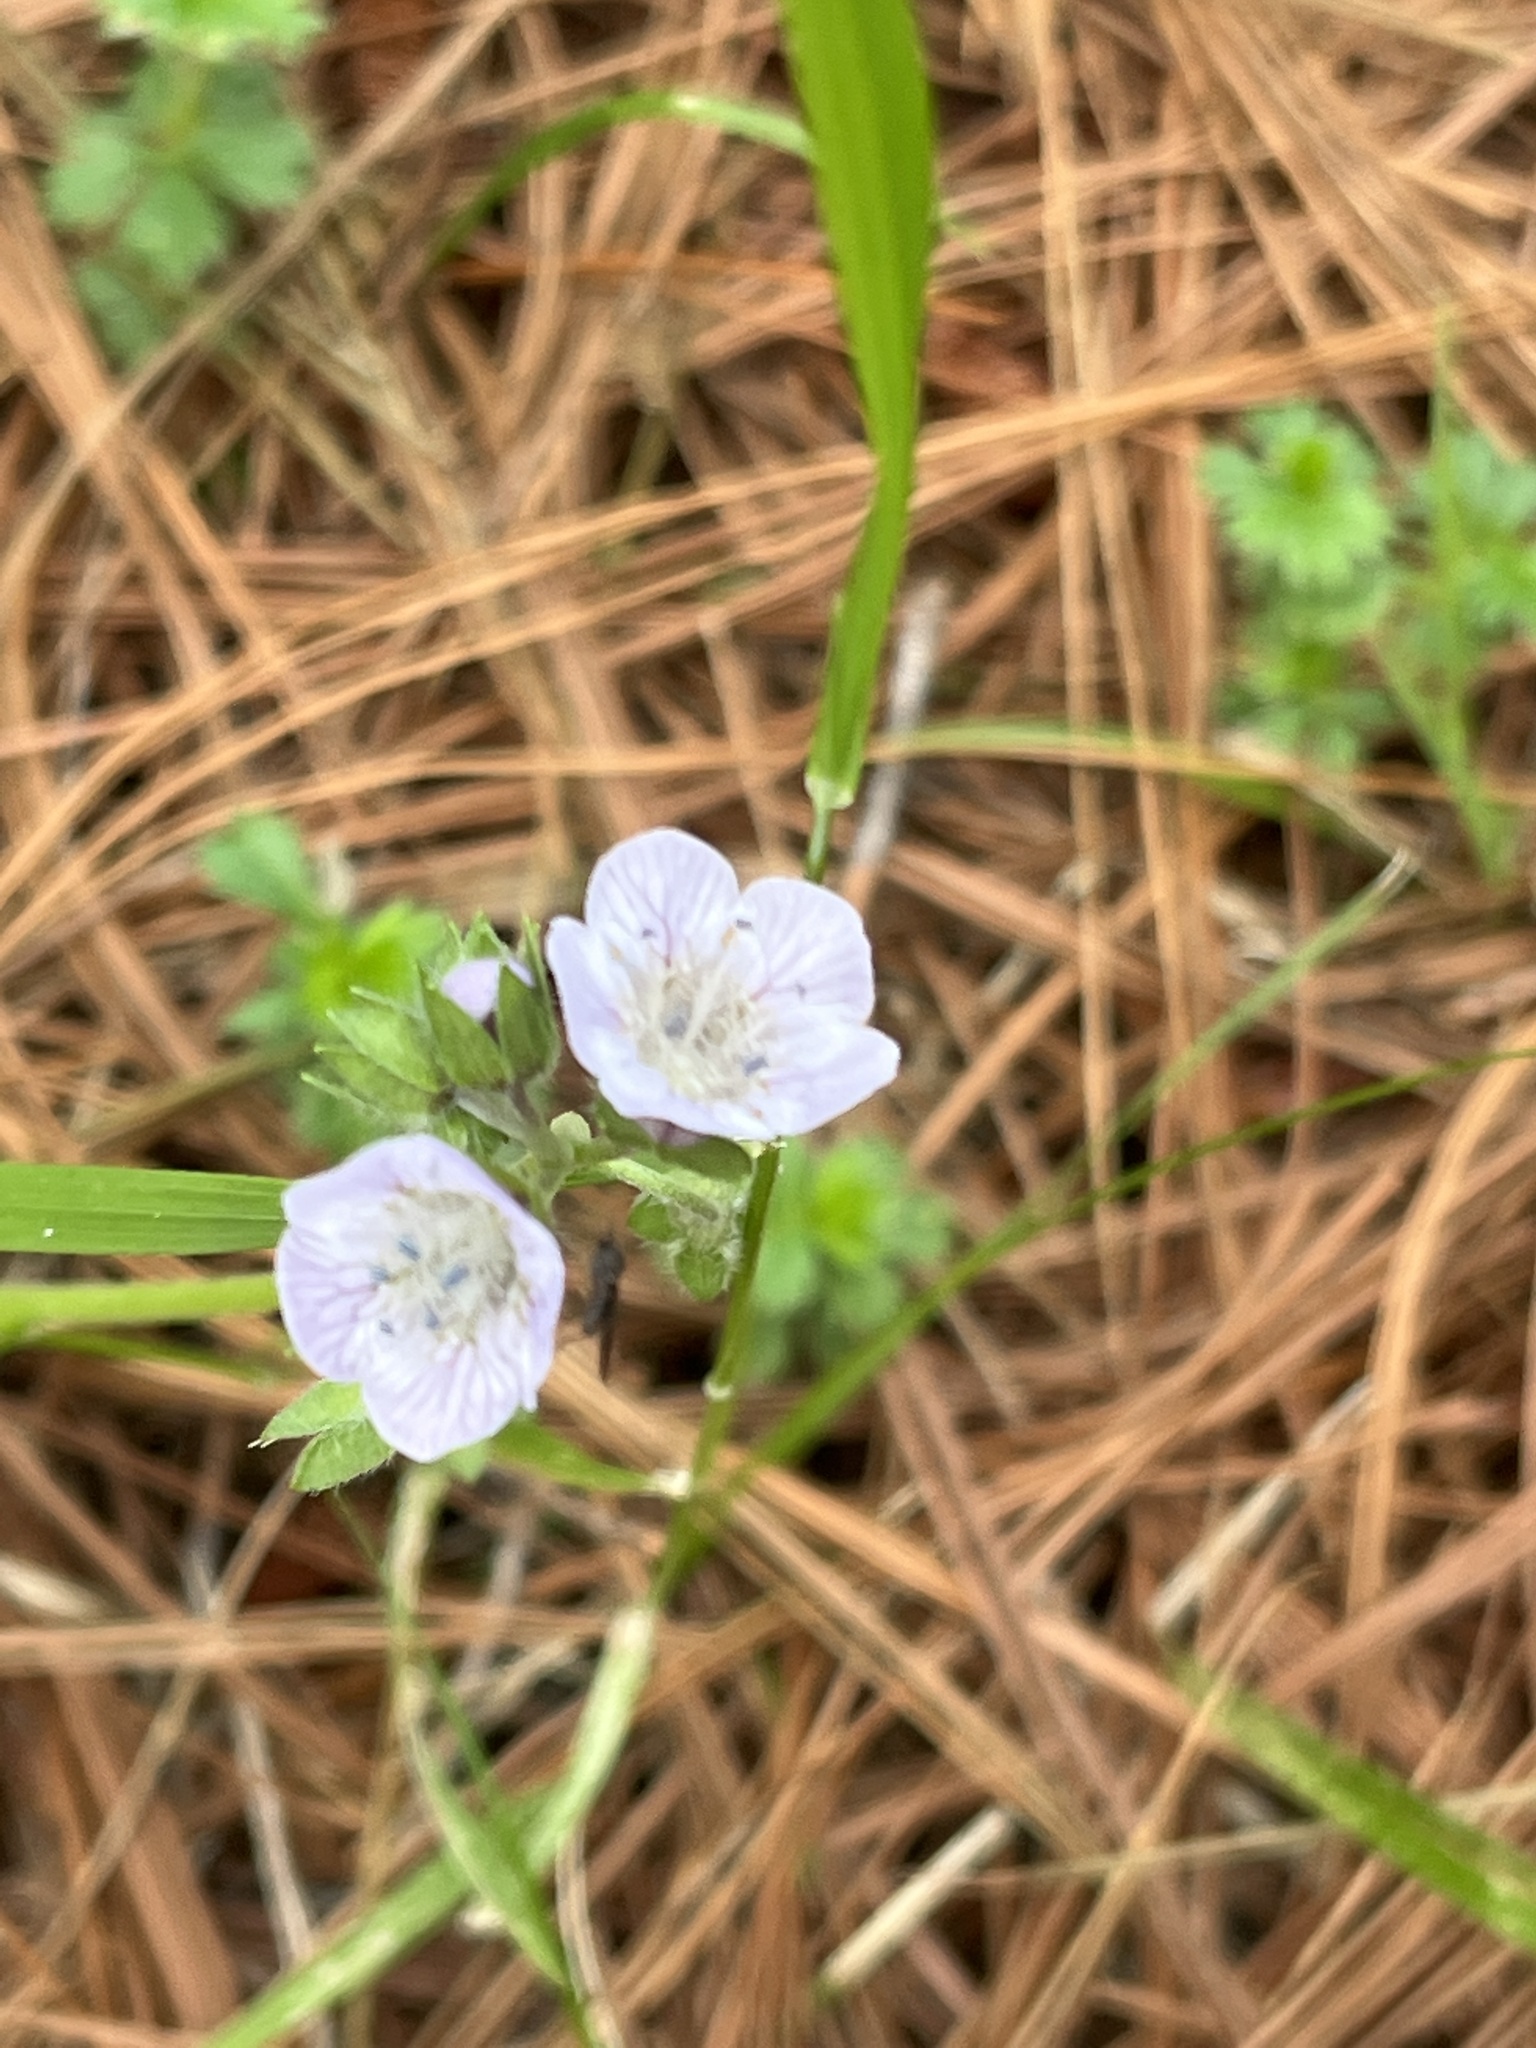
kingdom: Plantae
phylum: Tracheophyta
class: Magnoliopsida
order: Boraginales
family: Hydrophyllaceae
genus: Phacelia
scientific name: Phacelia platycarpa
